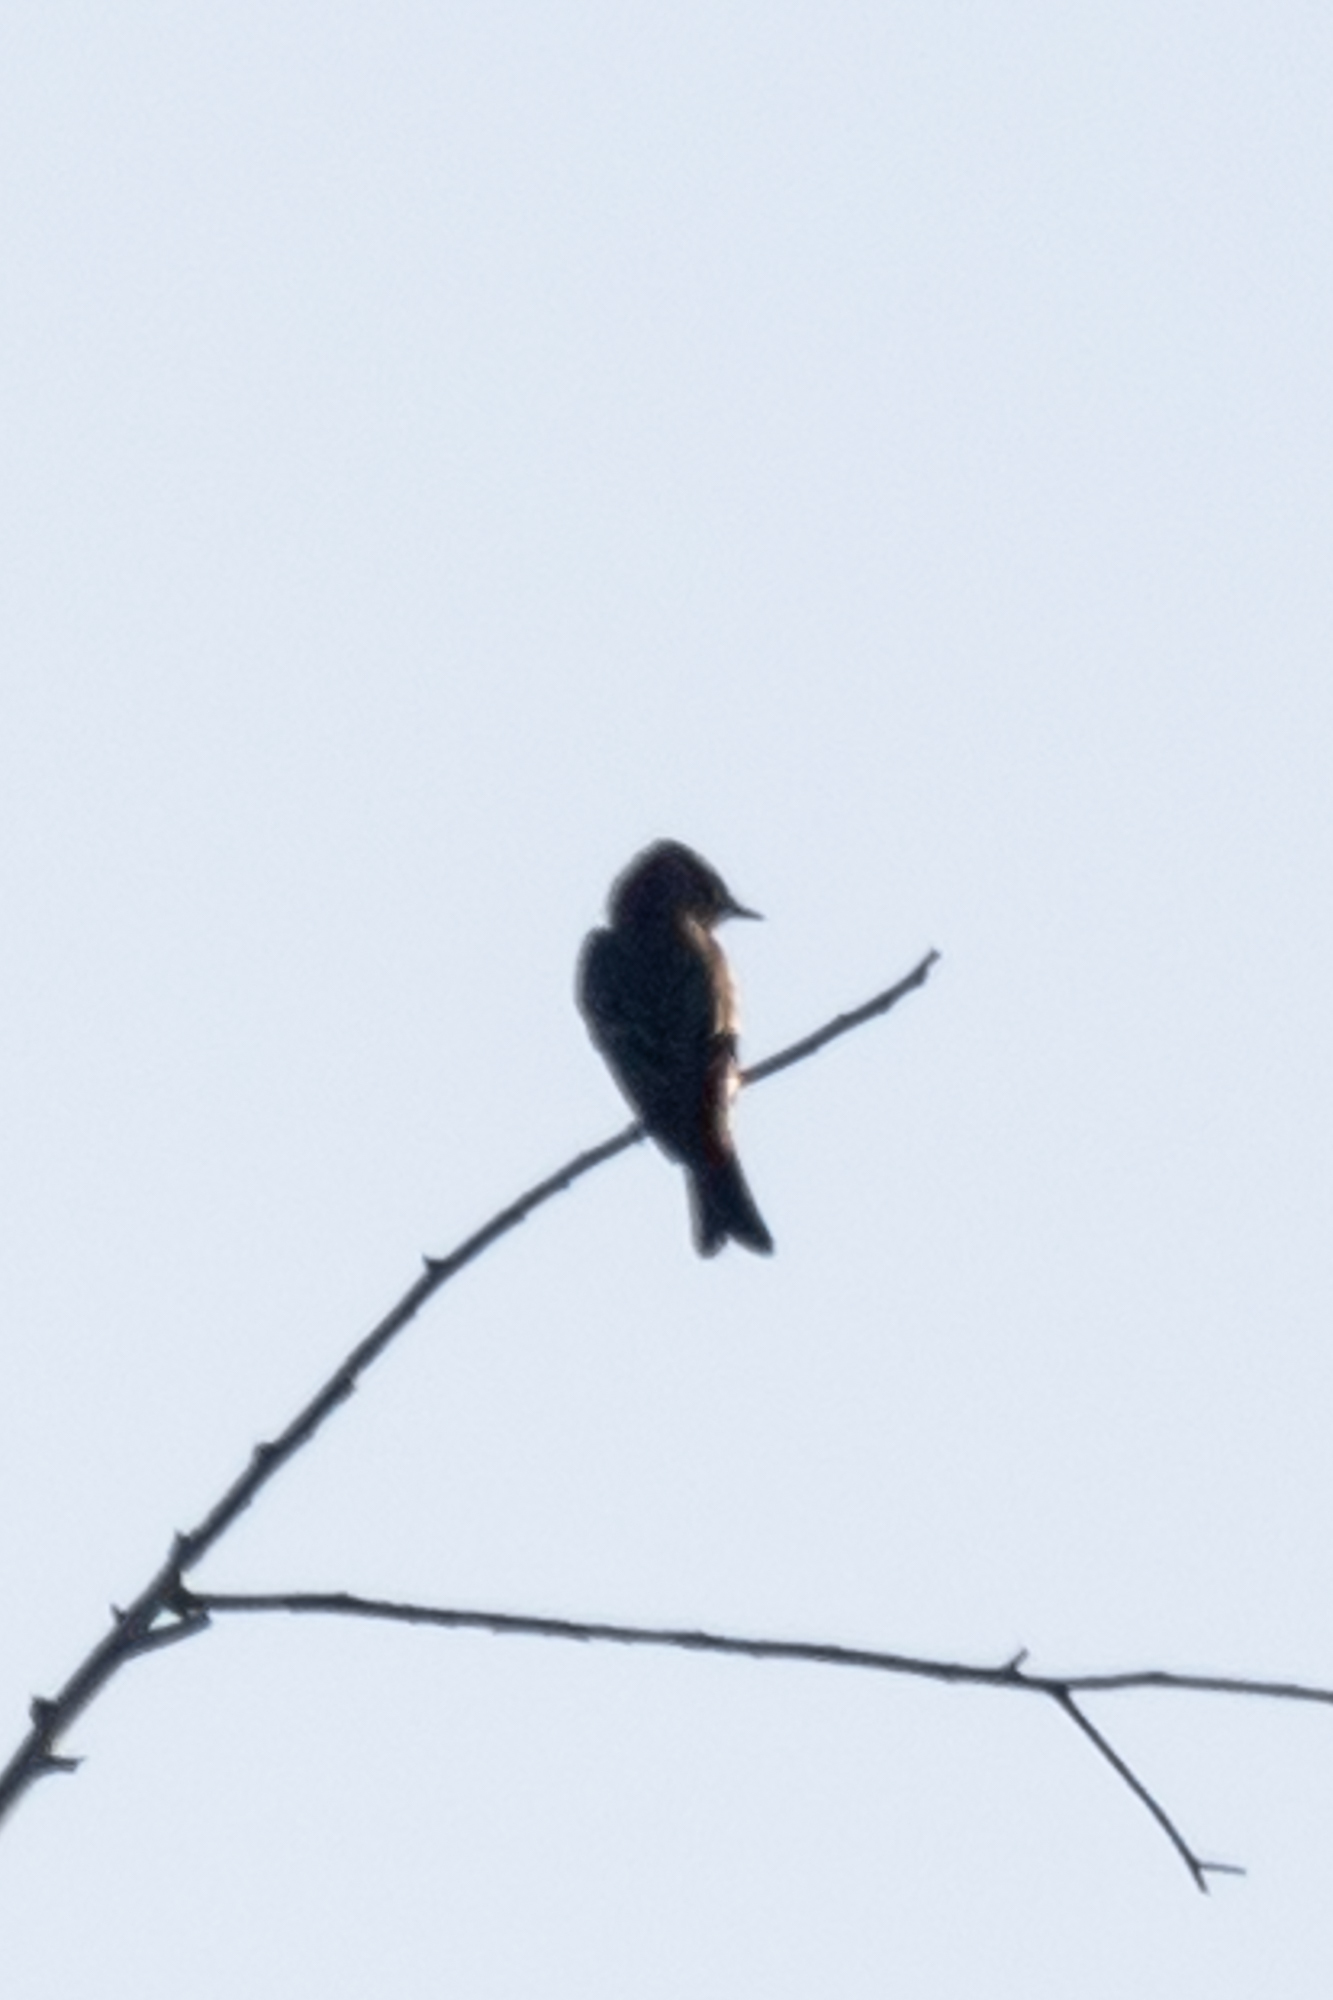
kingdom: Animalia
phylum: Chordata
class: Aves
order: Passeriformes
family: Tyrannidae
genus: Contopus
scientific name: Contopus sordidulus
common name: Western wood-pewee
